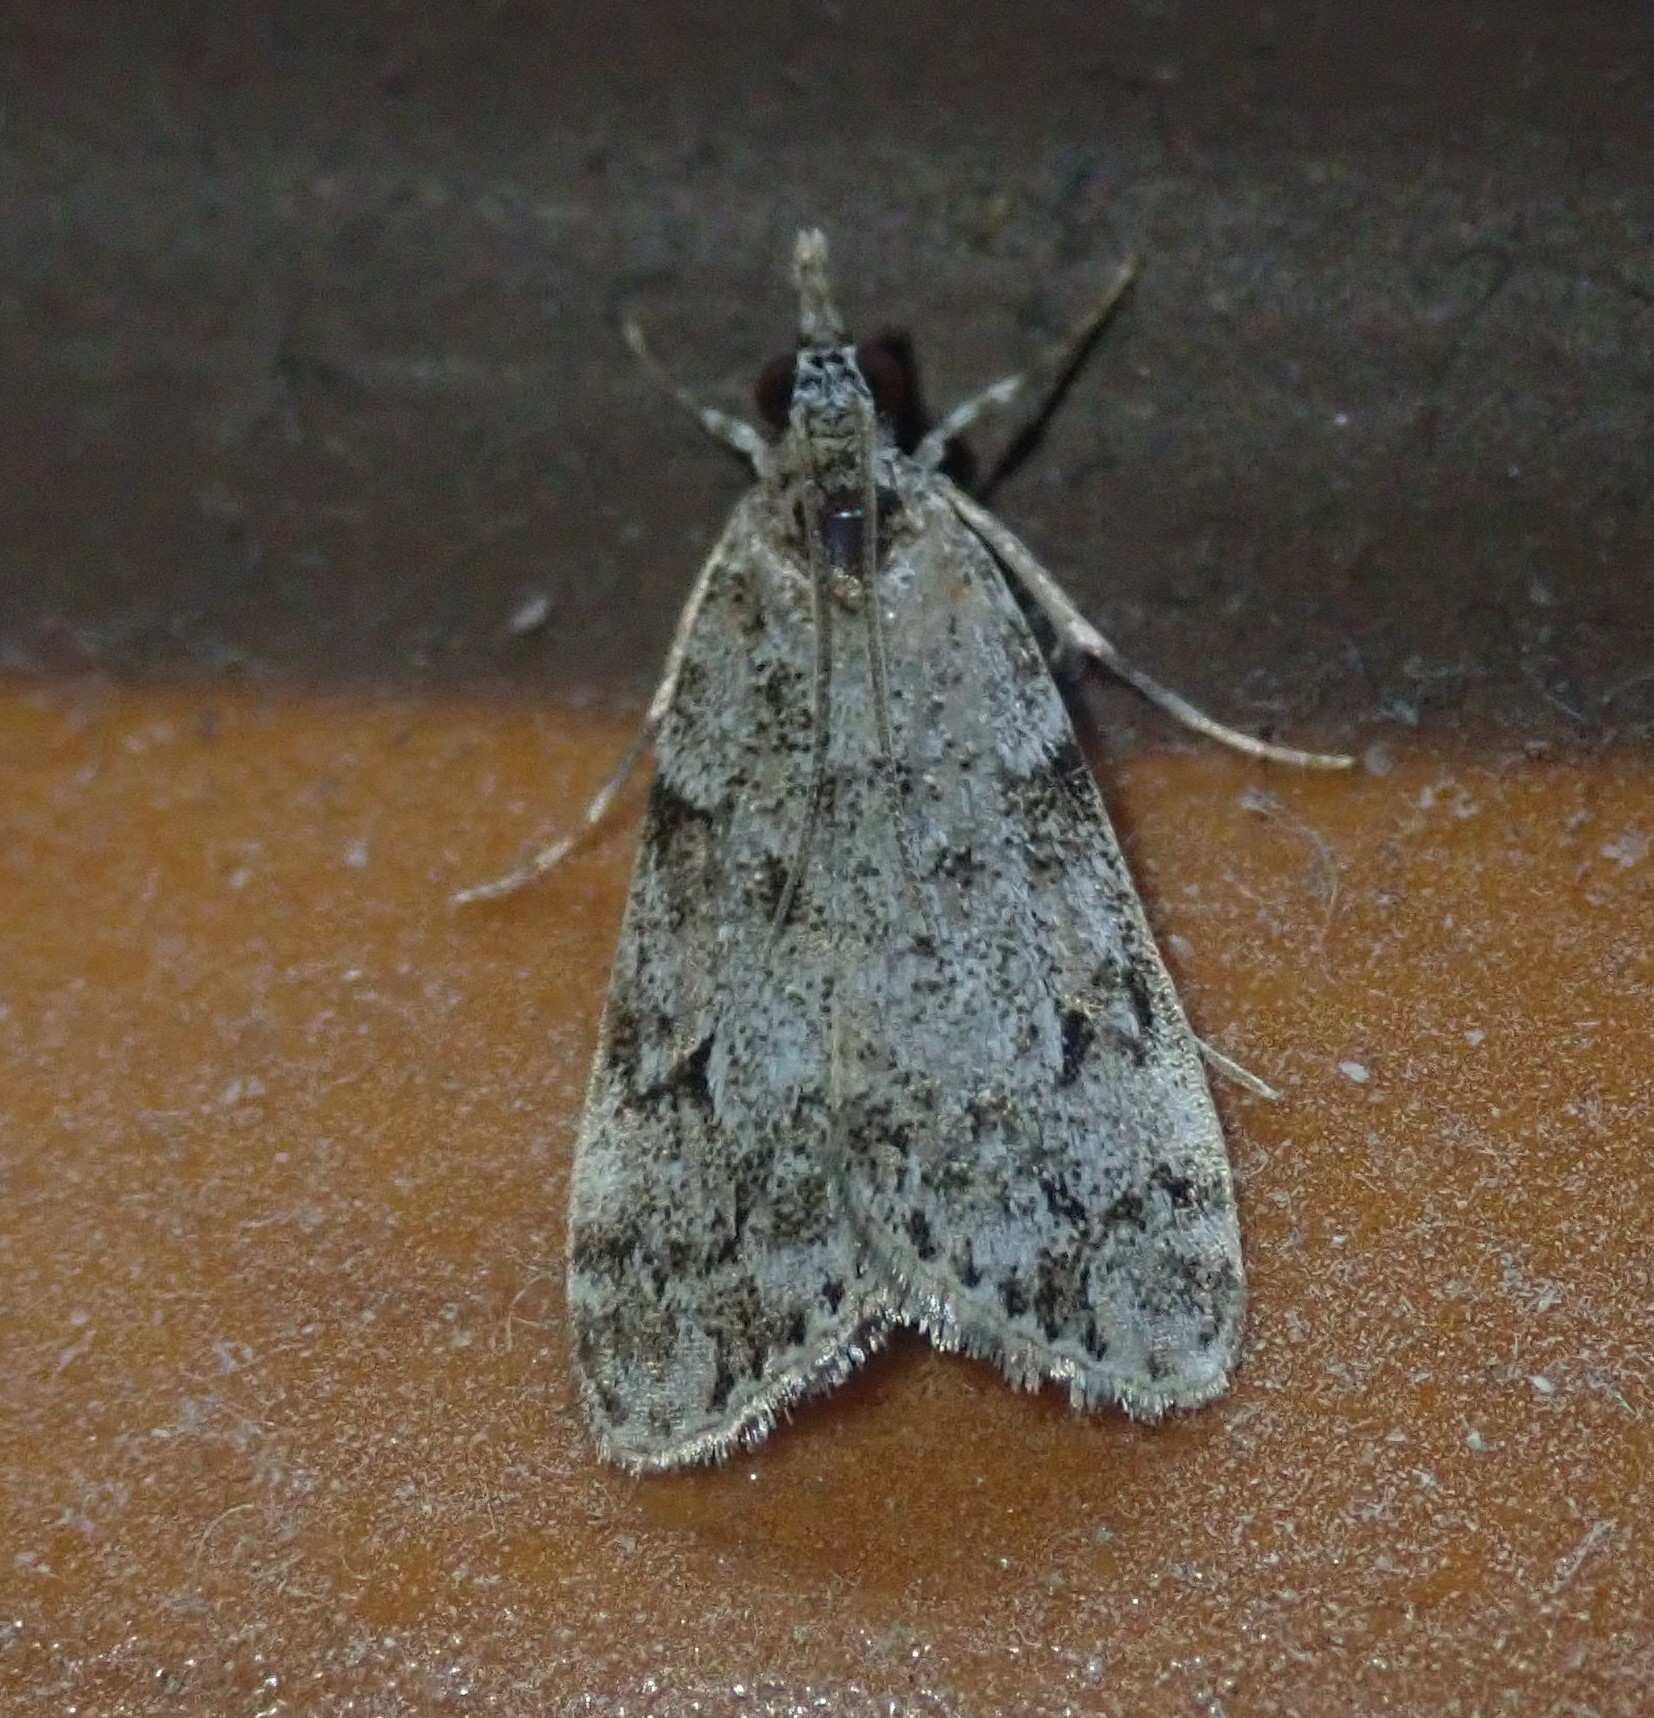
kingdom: Animalia
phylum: Arthropoda
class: Insecta
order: Lepidoptera
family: Crambidae
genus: Eudonia
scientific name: Eudonia lacustrata
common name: Little grey
